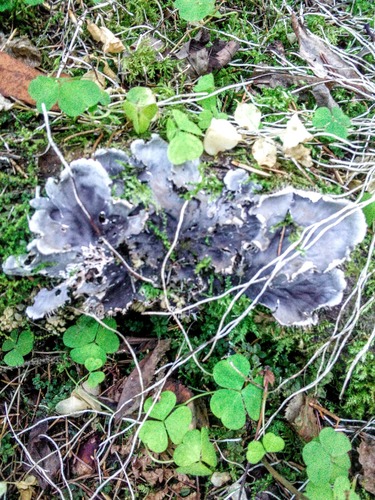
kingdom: Fungi
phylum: Ascomycota
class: Lecanoromycetes
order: Peltigerales
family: Peltigeraceae
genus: Peltigera
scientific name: Peltigera
